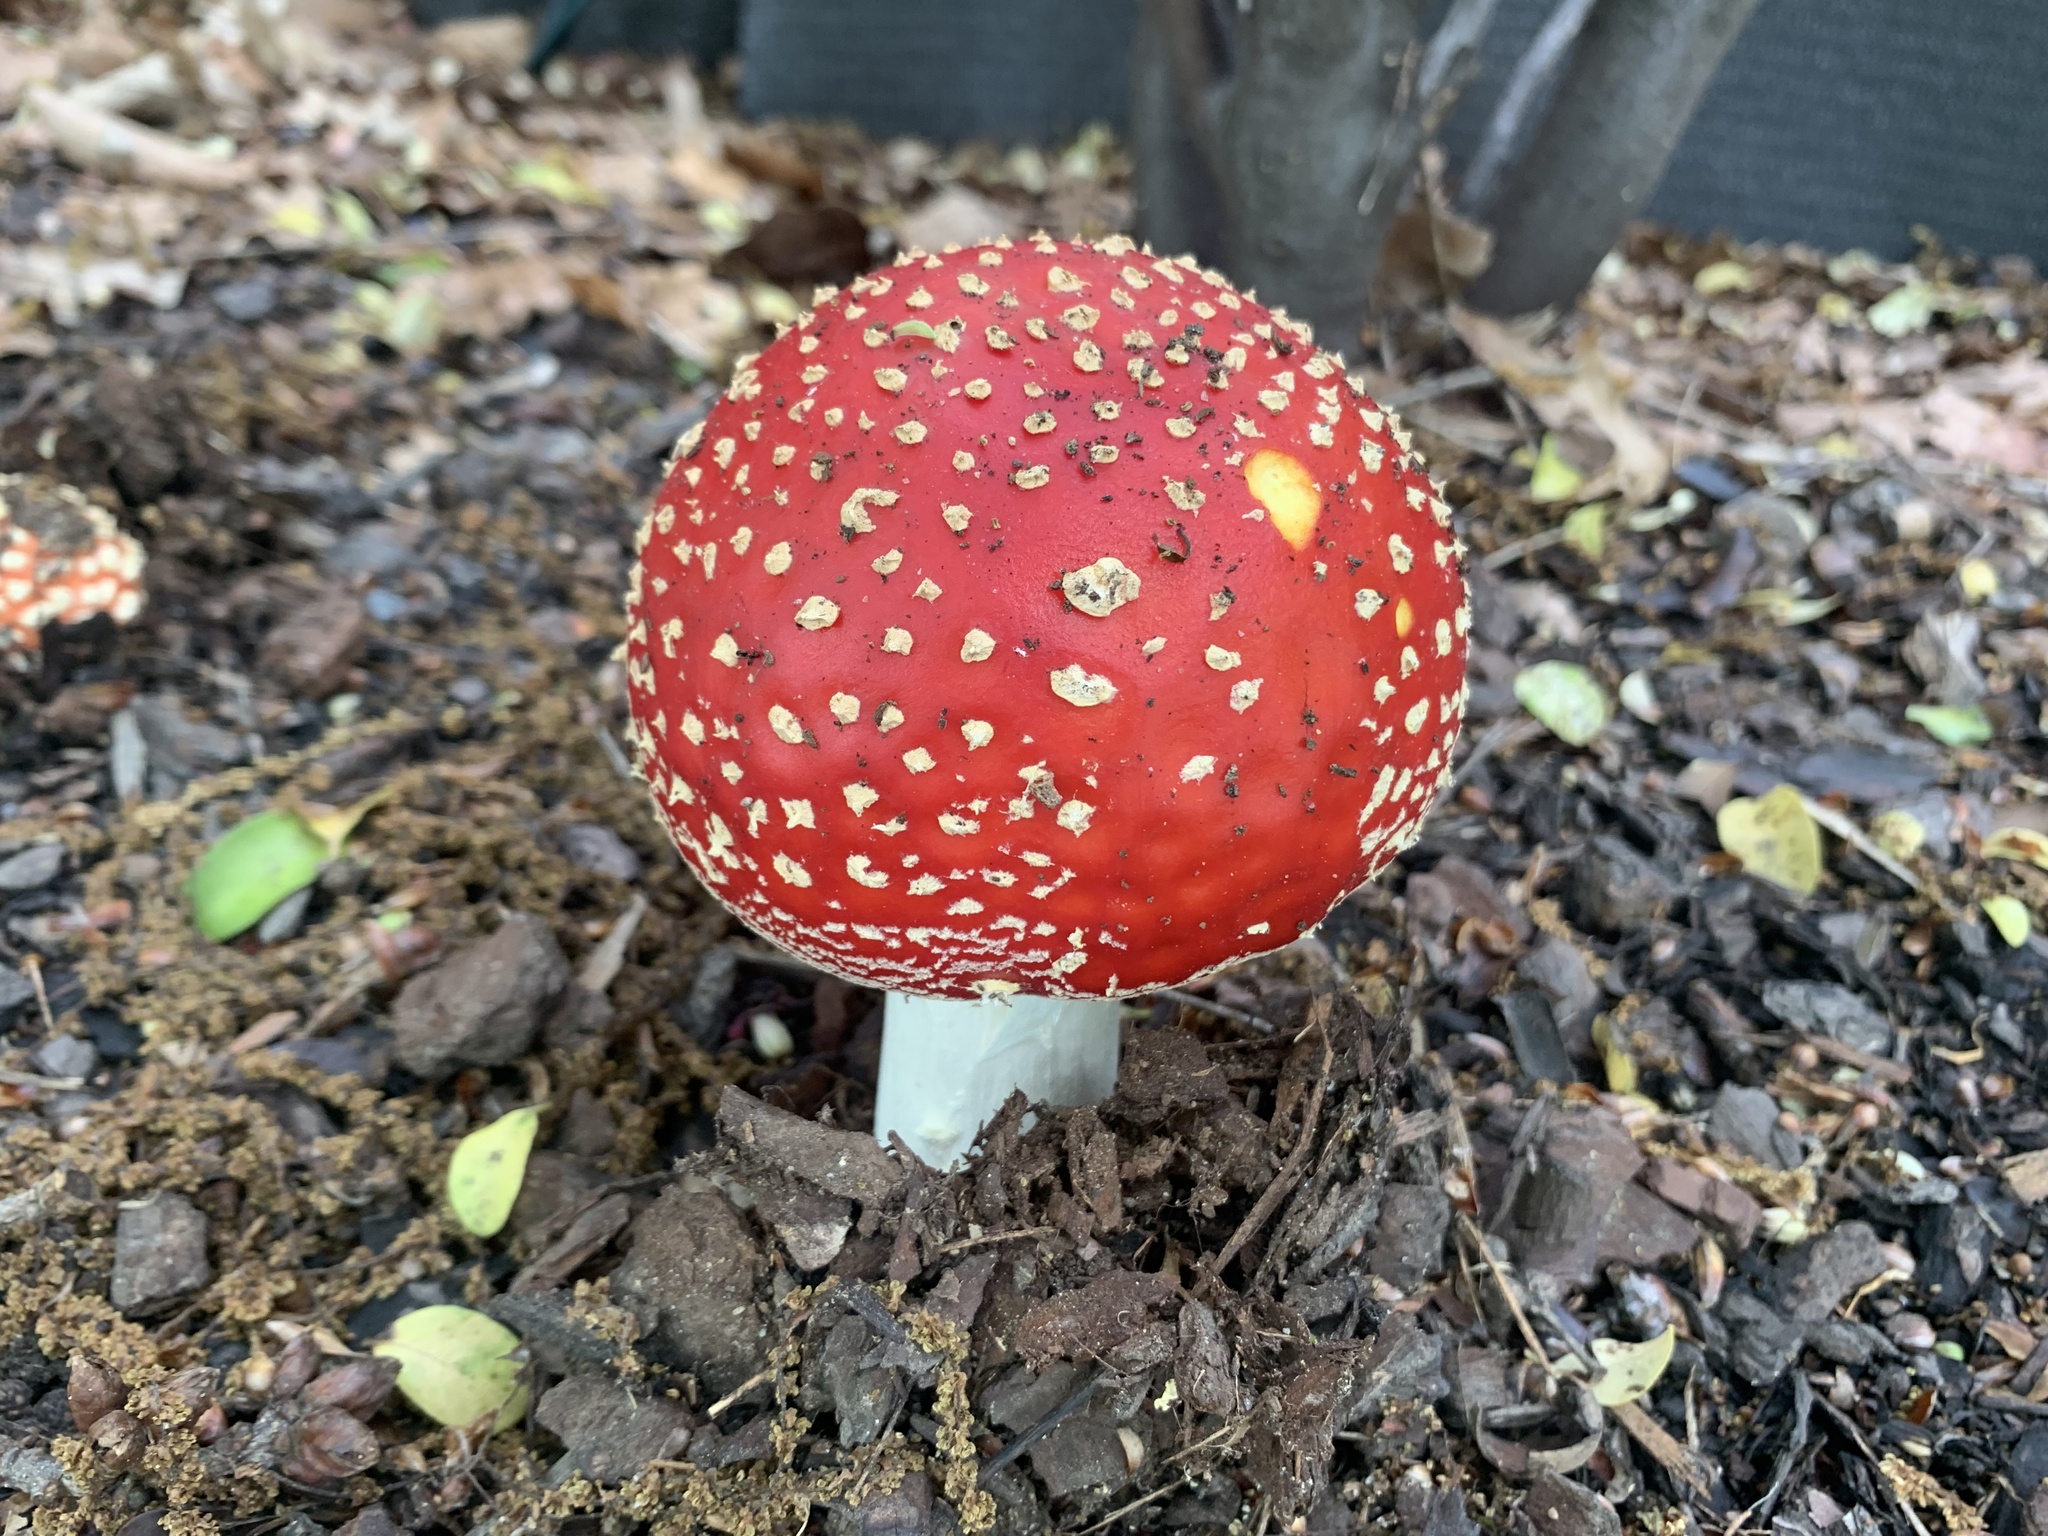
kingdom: Fungi
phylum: Basidiomycota
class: Agaricomycetes
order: Agaricales
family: Amanitaceae
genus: Amanita
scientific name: Amanita muscaria
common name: Fly agaric
